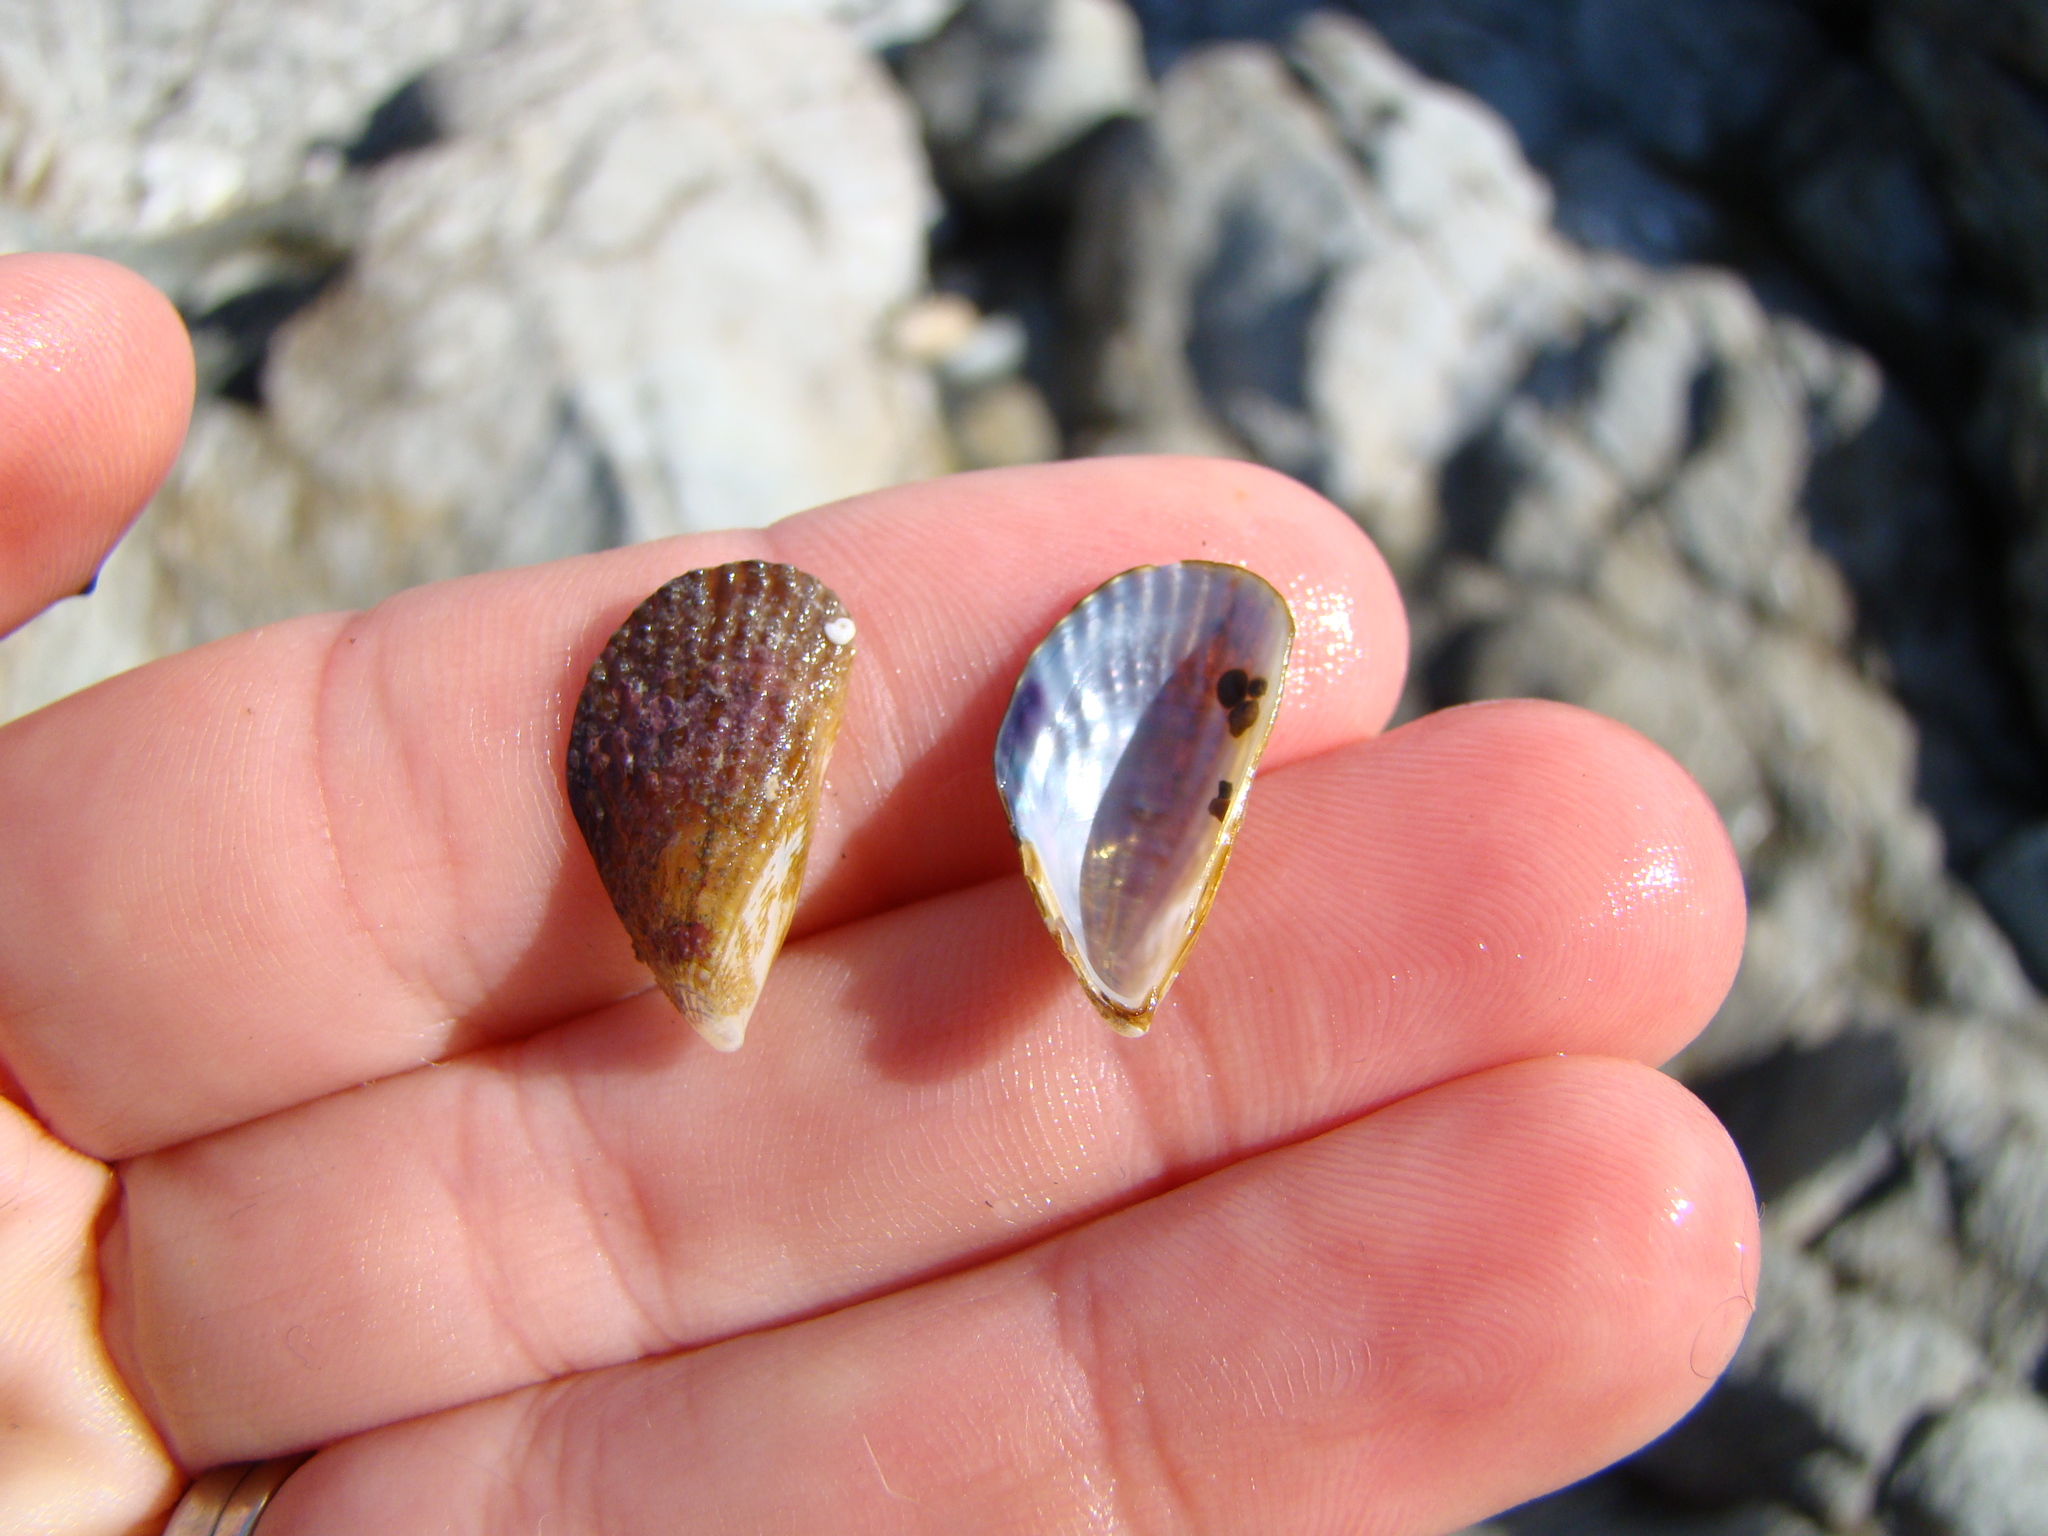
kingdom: Animalia
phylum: Mollusca
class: Bivalvia
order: Mytilida
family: Mytilidae
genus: Aulacomya
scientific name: Aulacomya maoriana
